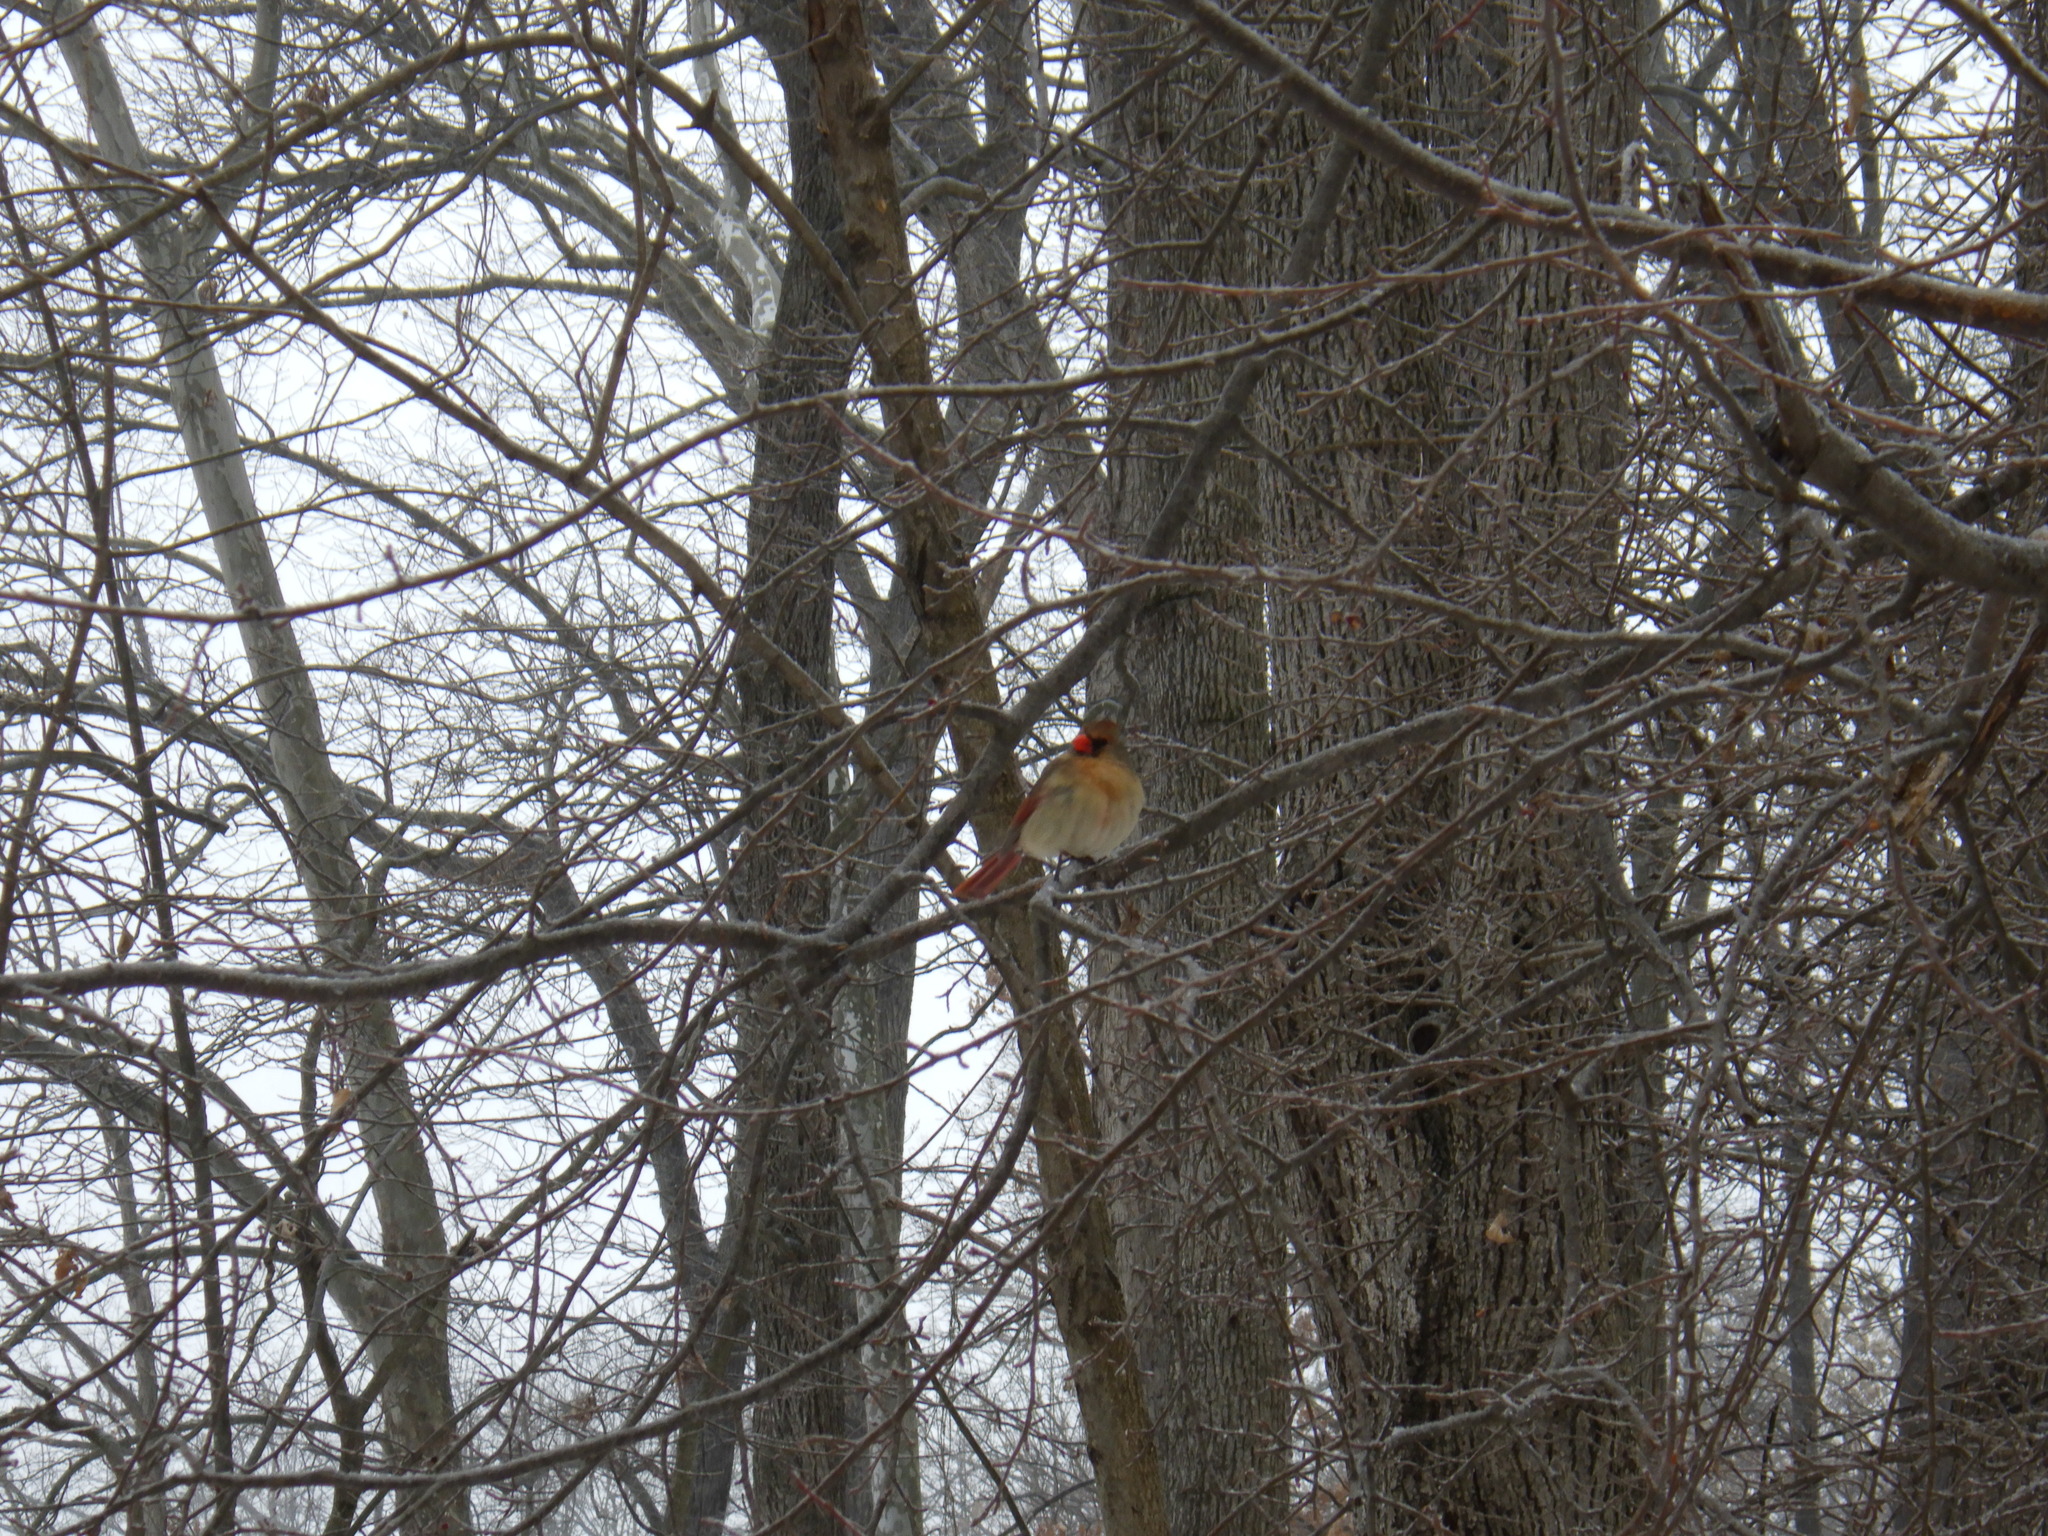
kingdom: Animalia
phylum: Chordata
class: Aves
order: Passeriformes
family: Cardinalidae
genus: Cardinalis
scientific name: Cardinalis cardinalis
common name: Northern cardinal
